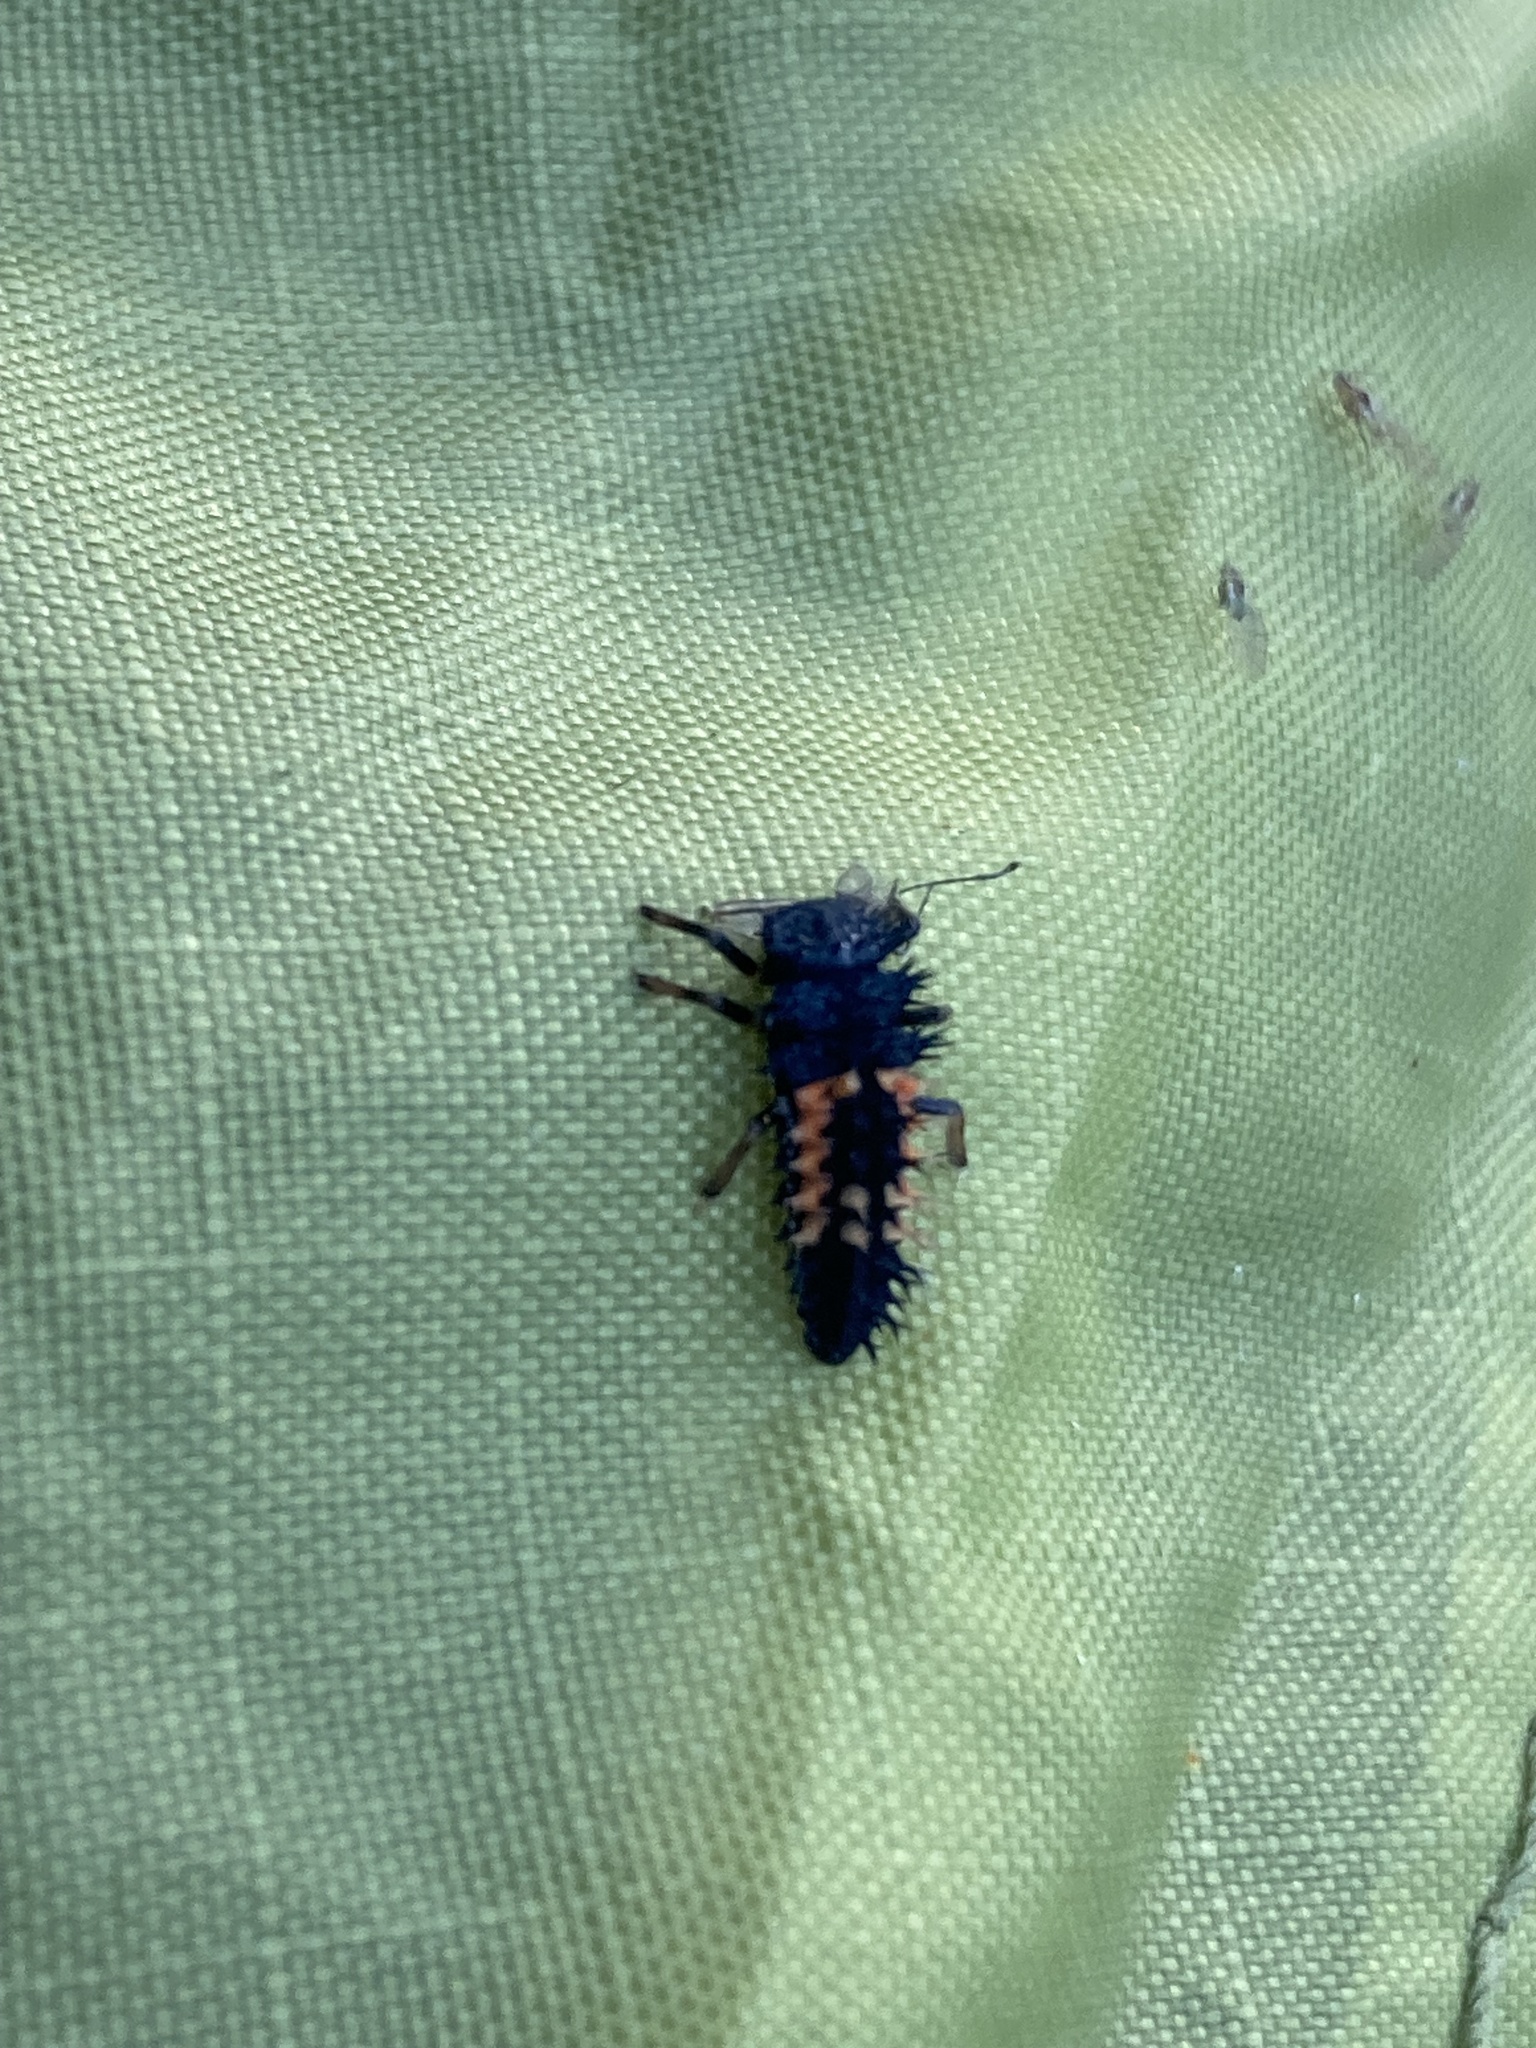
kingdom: Animalia
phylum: Arthropoda
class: Insecta
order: Coleoptera
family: Coccinellidae
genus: Harmonia
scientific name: Harmonia axyridis
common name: Harlequin ladybird
